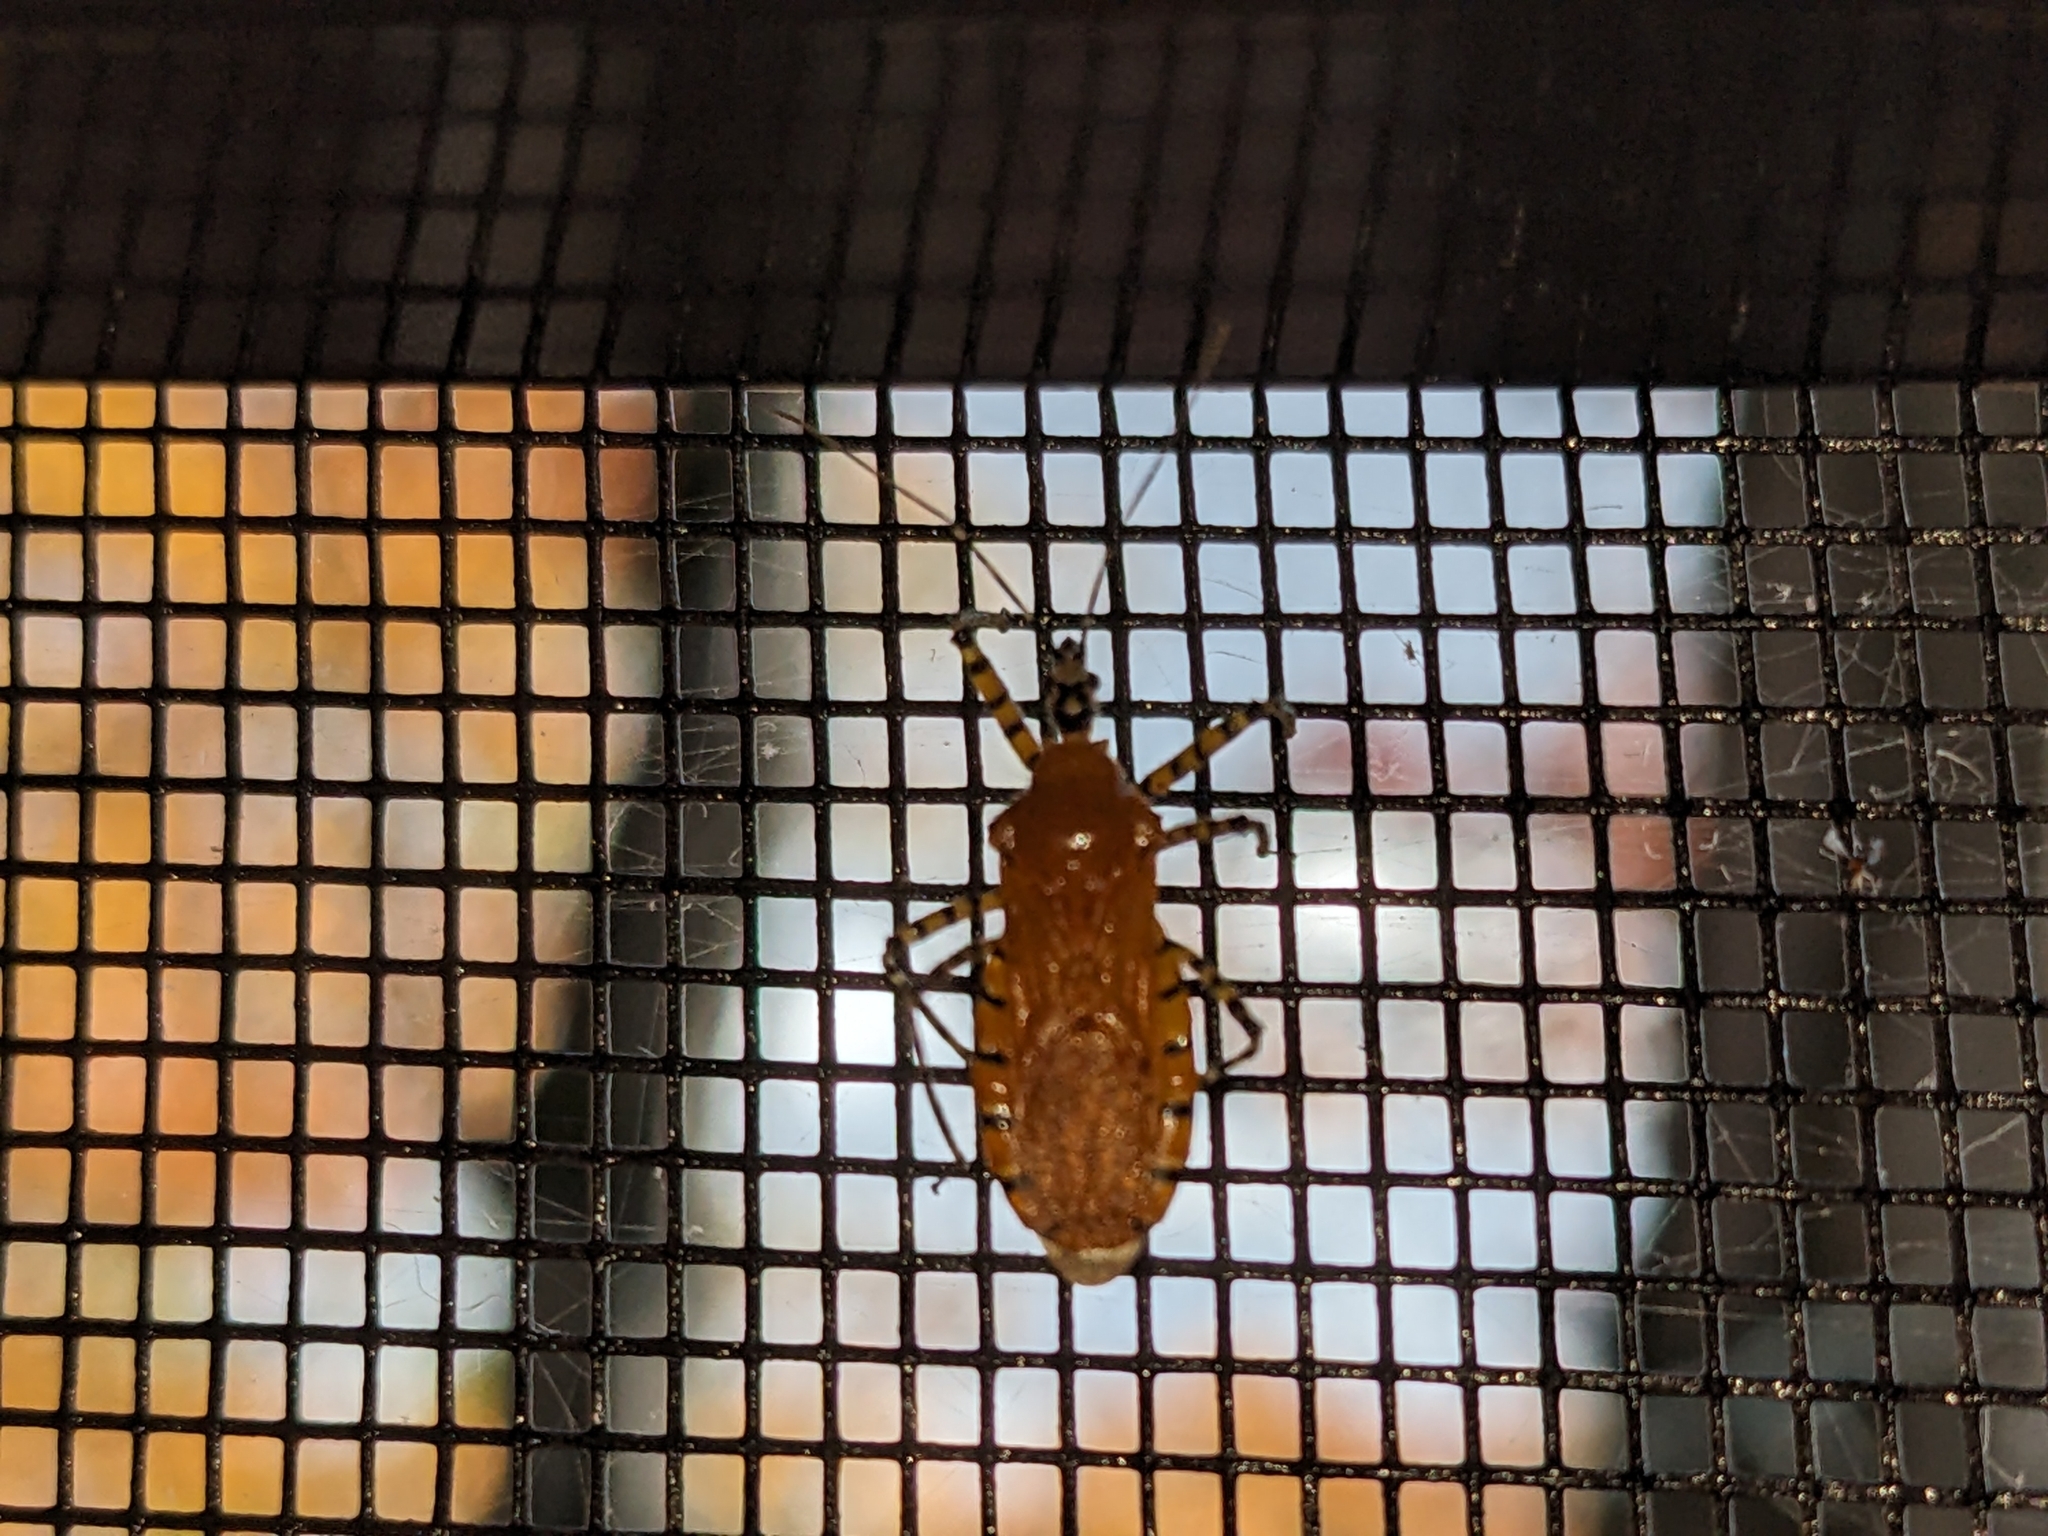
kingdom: Animalia
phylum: Arthropoda
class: Insecta
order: Hemiptera
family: Reduviidae
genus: Pselliopus
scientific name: Pselliopus barberi
